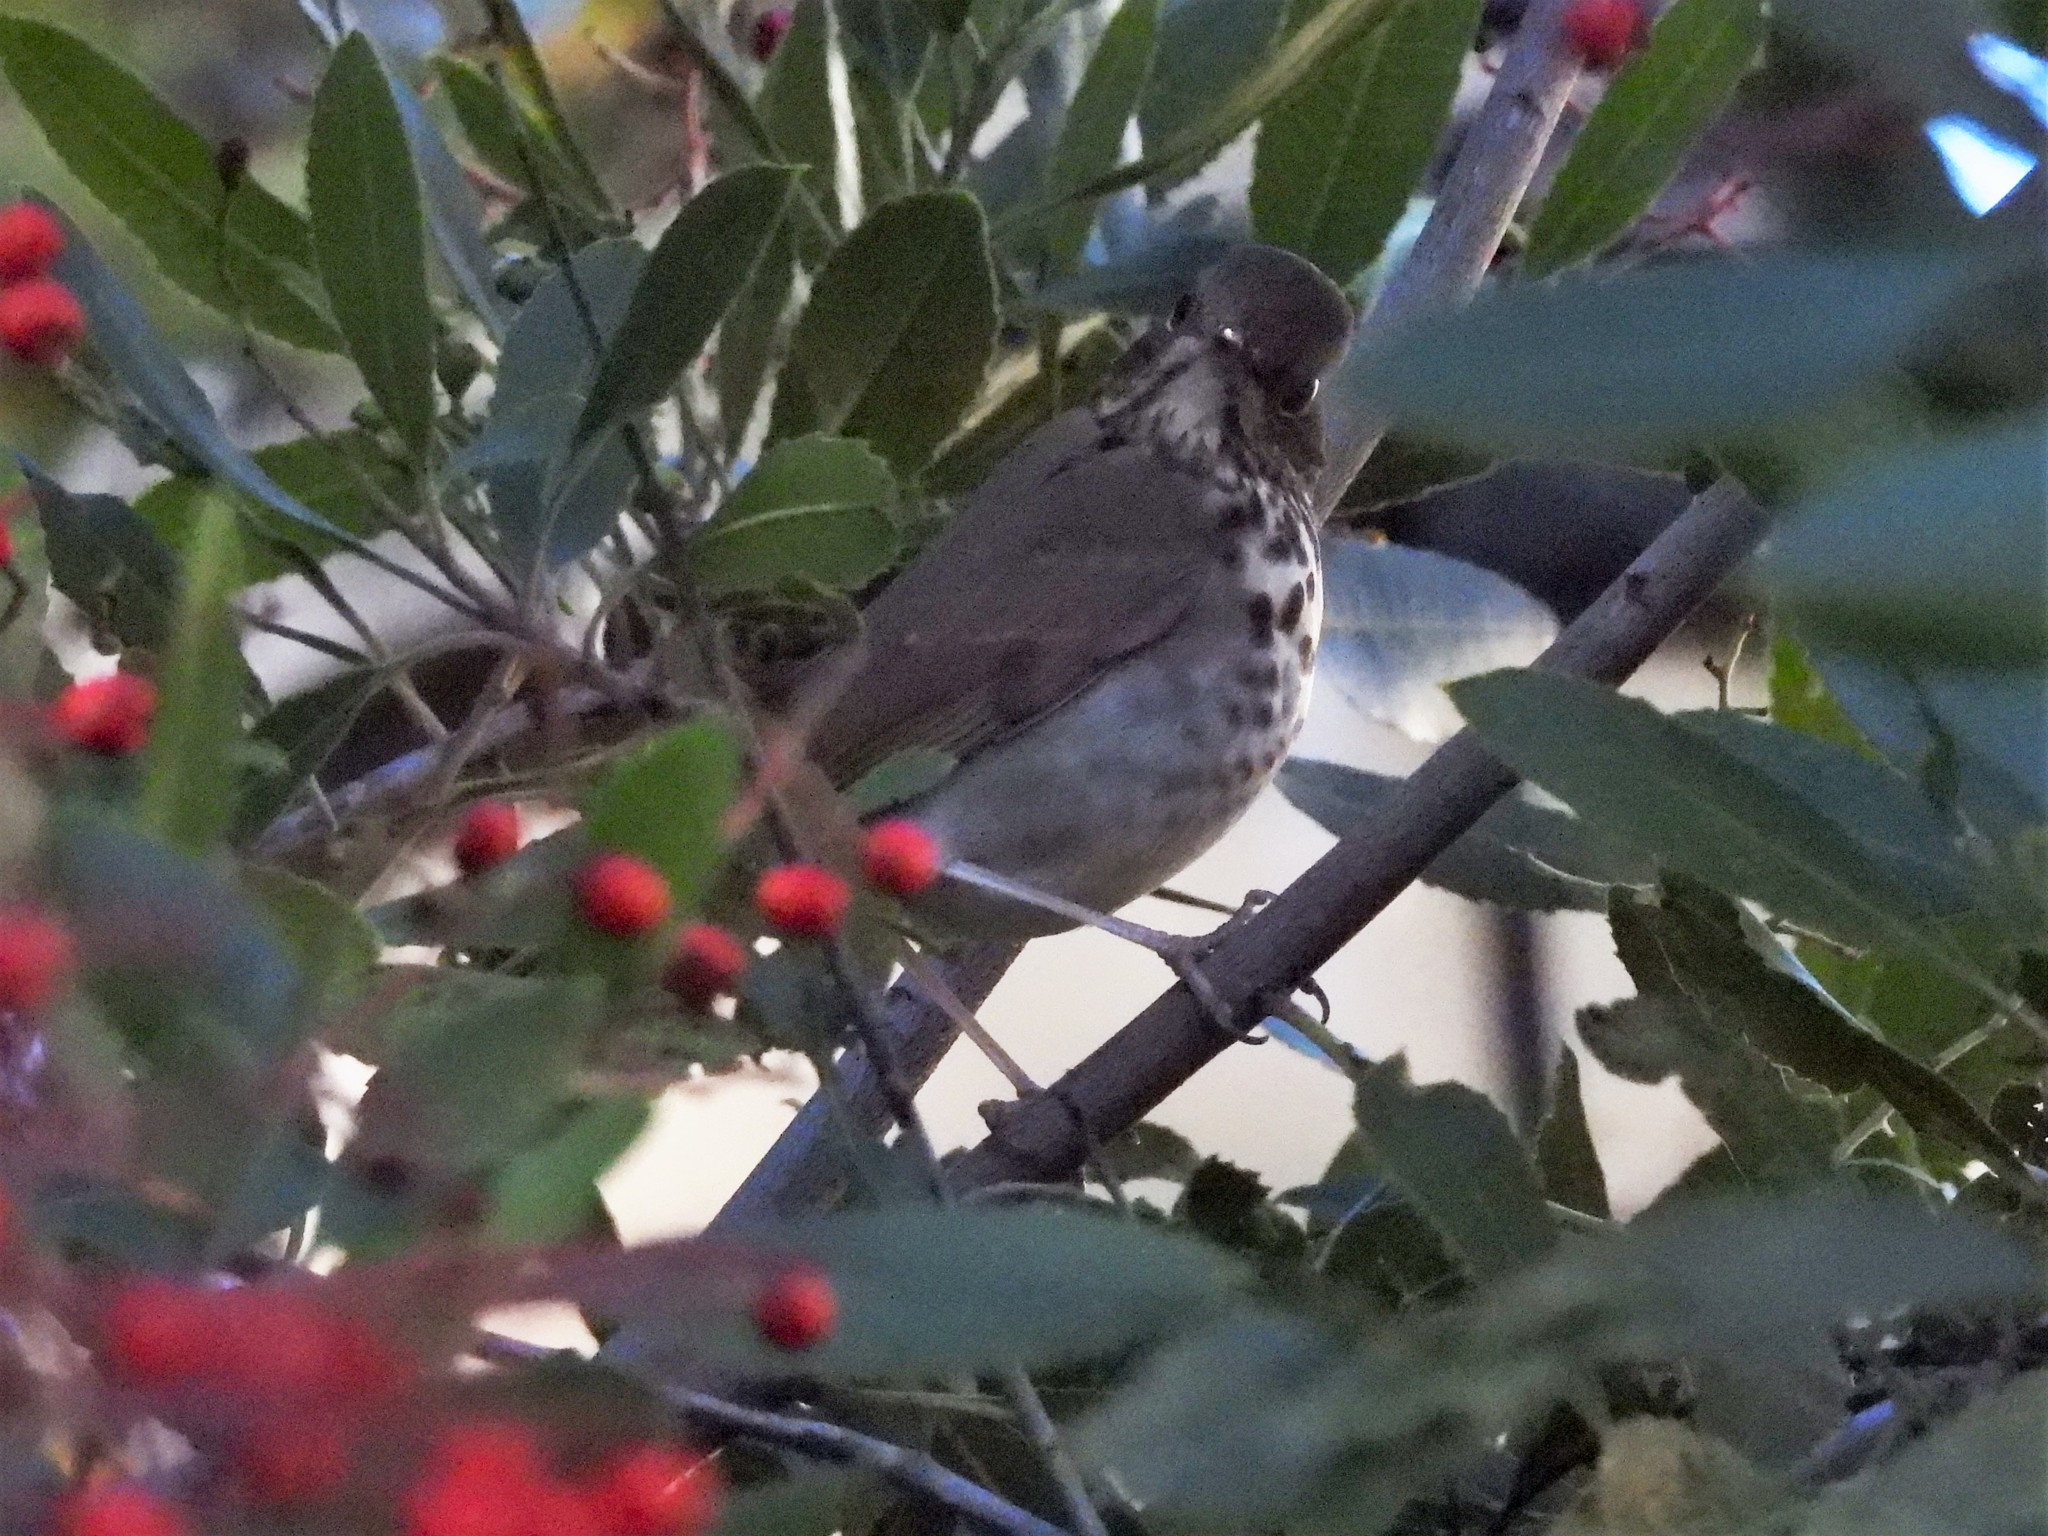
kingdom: Animalia
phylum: Chordata
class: Aves
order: Passeriformes
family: Turdidae
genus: Catharus
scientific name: Catharus guttatus
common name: Hermit thrush
